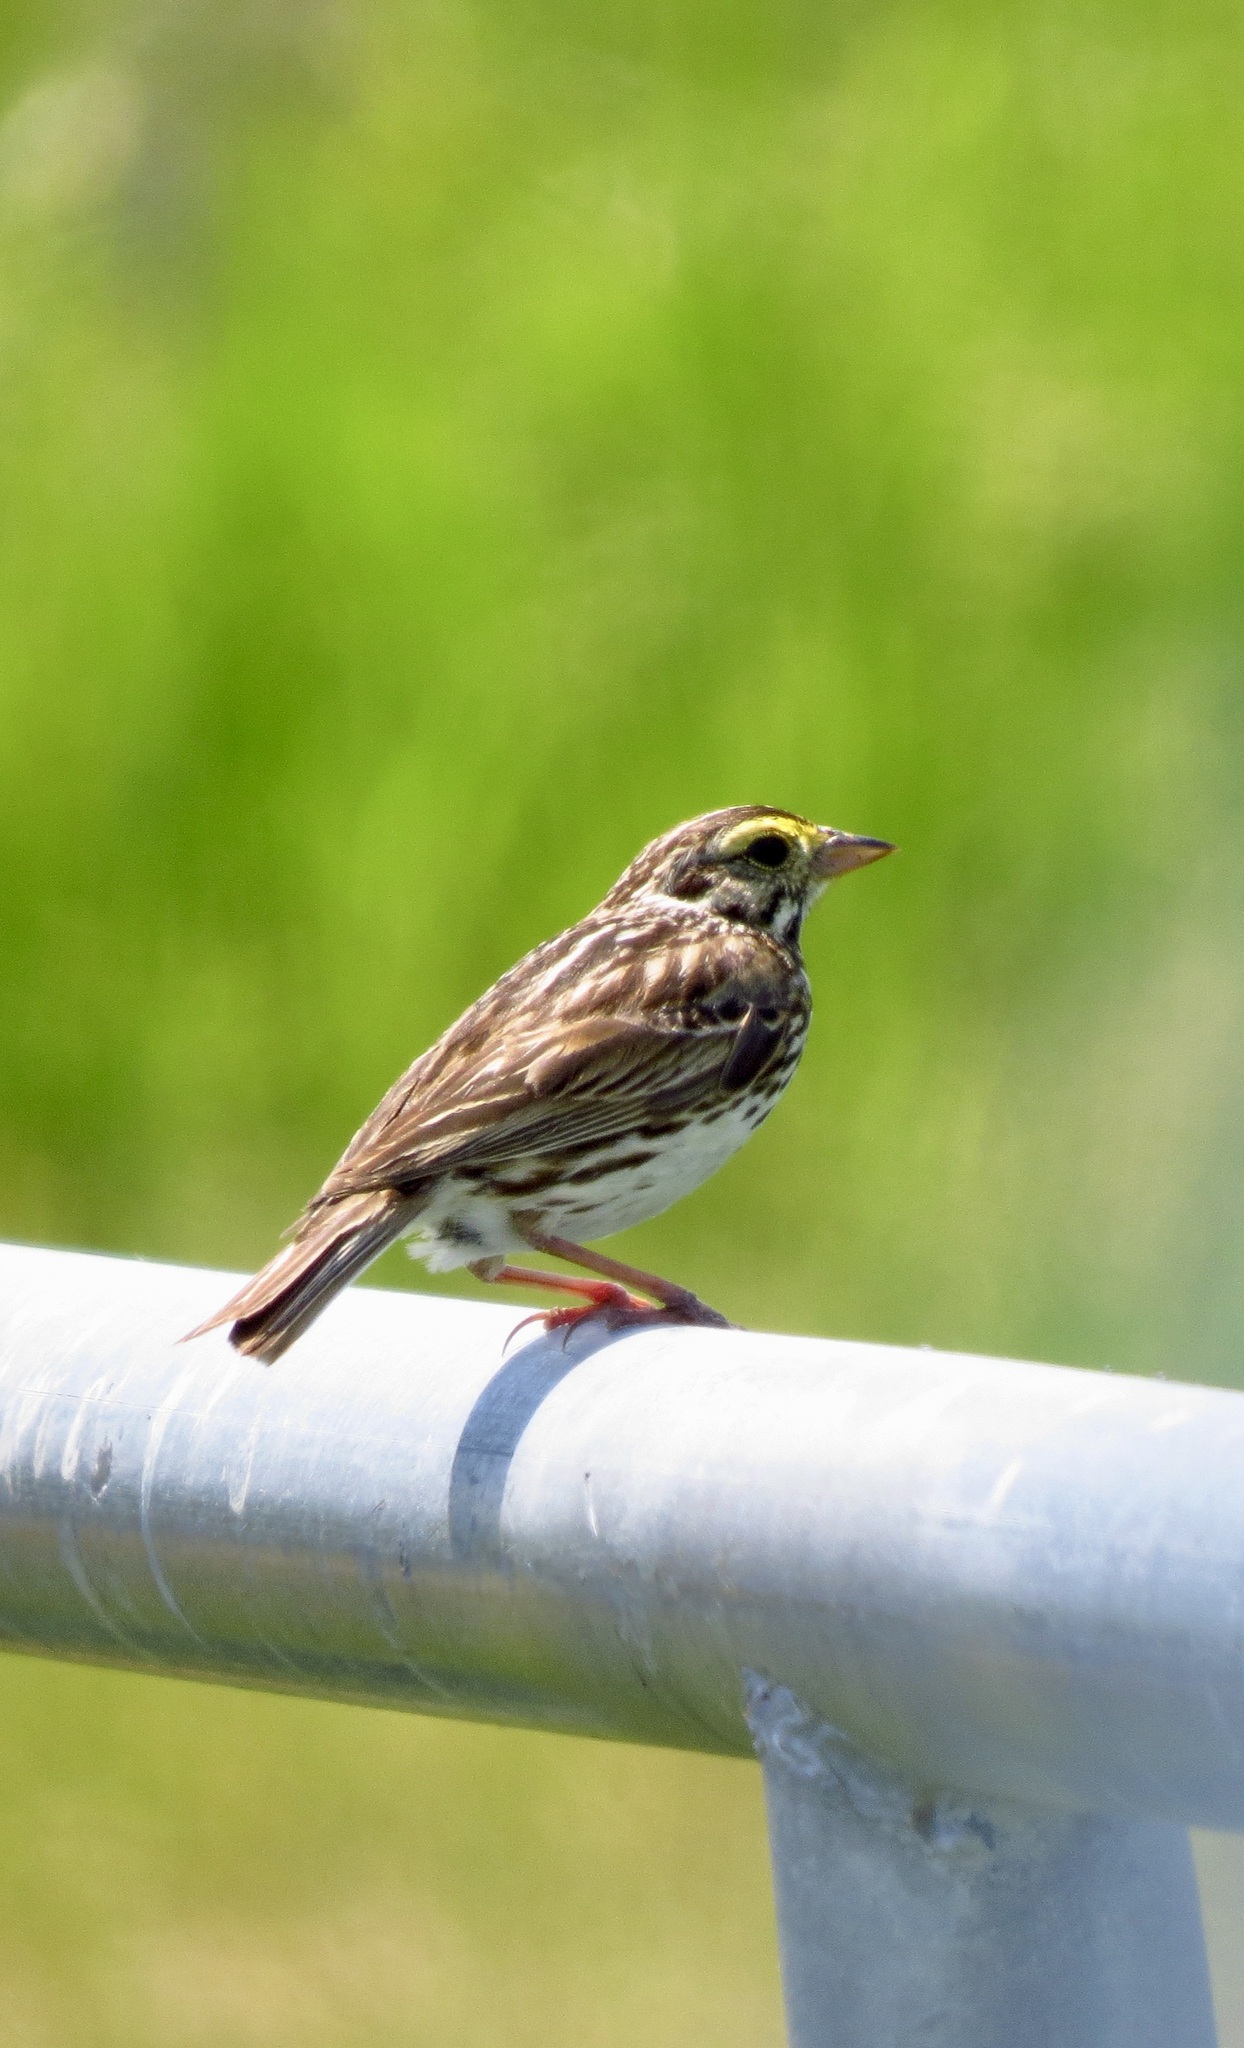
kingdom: Animalia
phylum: Chordata
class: Aves
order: Passeriformes
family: Passerellidae
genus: Passerculus
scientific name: Passerculus sandwichensis
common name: Savannah sparrow
